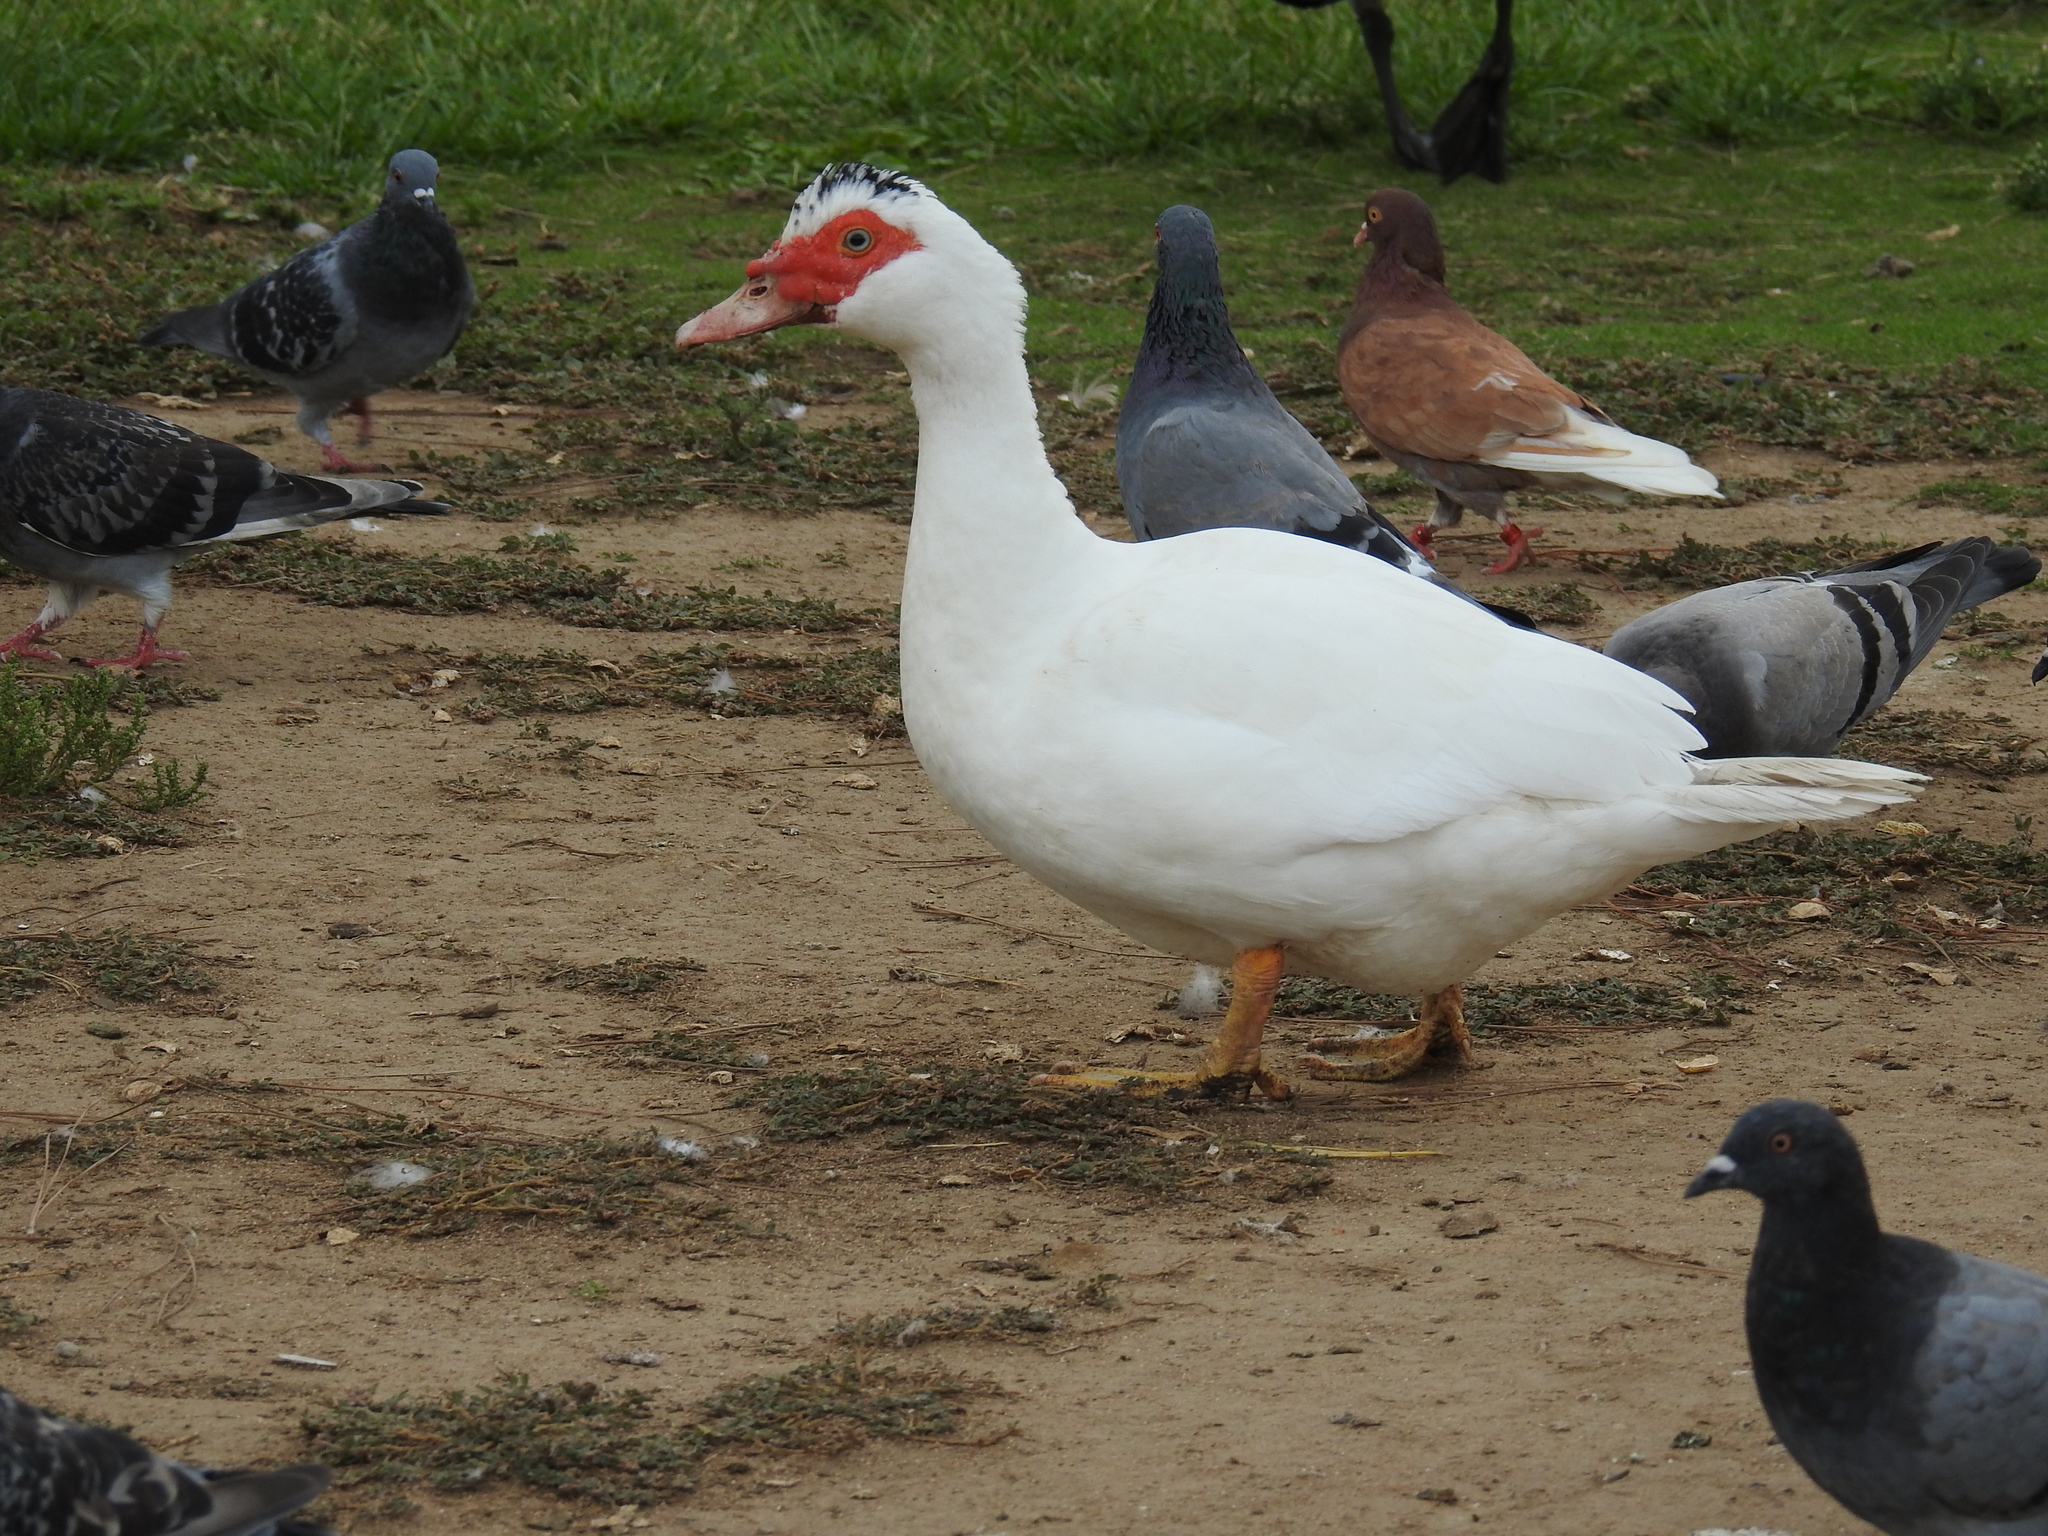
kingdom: Animalia
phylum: Chordata
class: Aves
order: Anseriformes
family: Anatidae
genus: Cairina
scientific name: Cairina moschata
